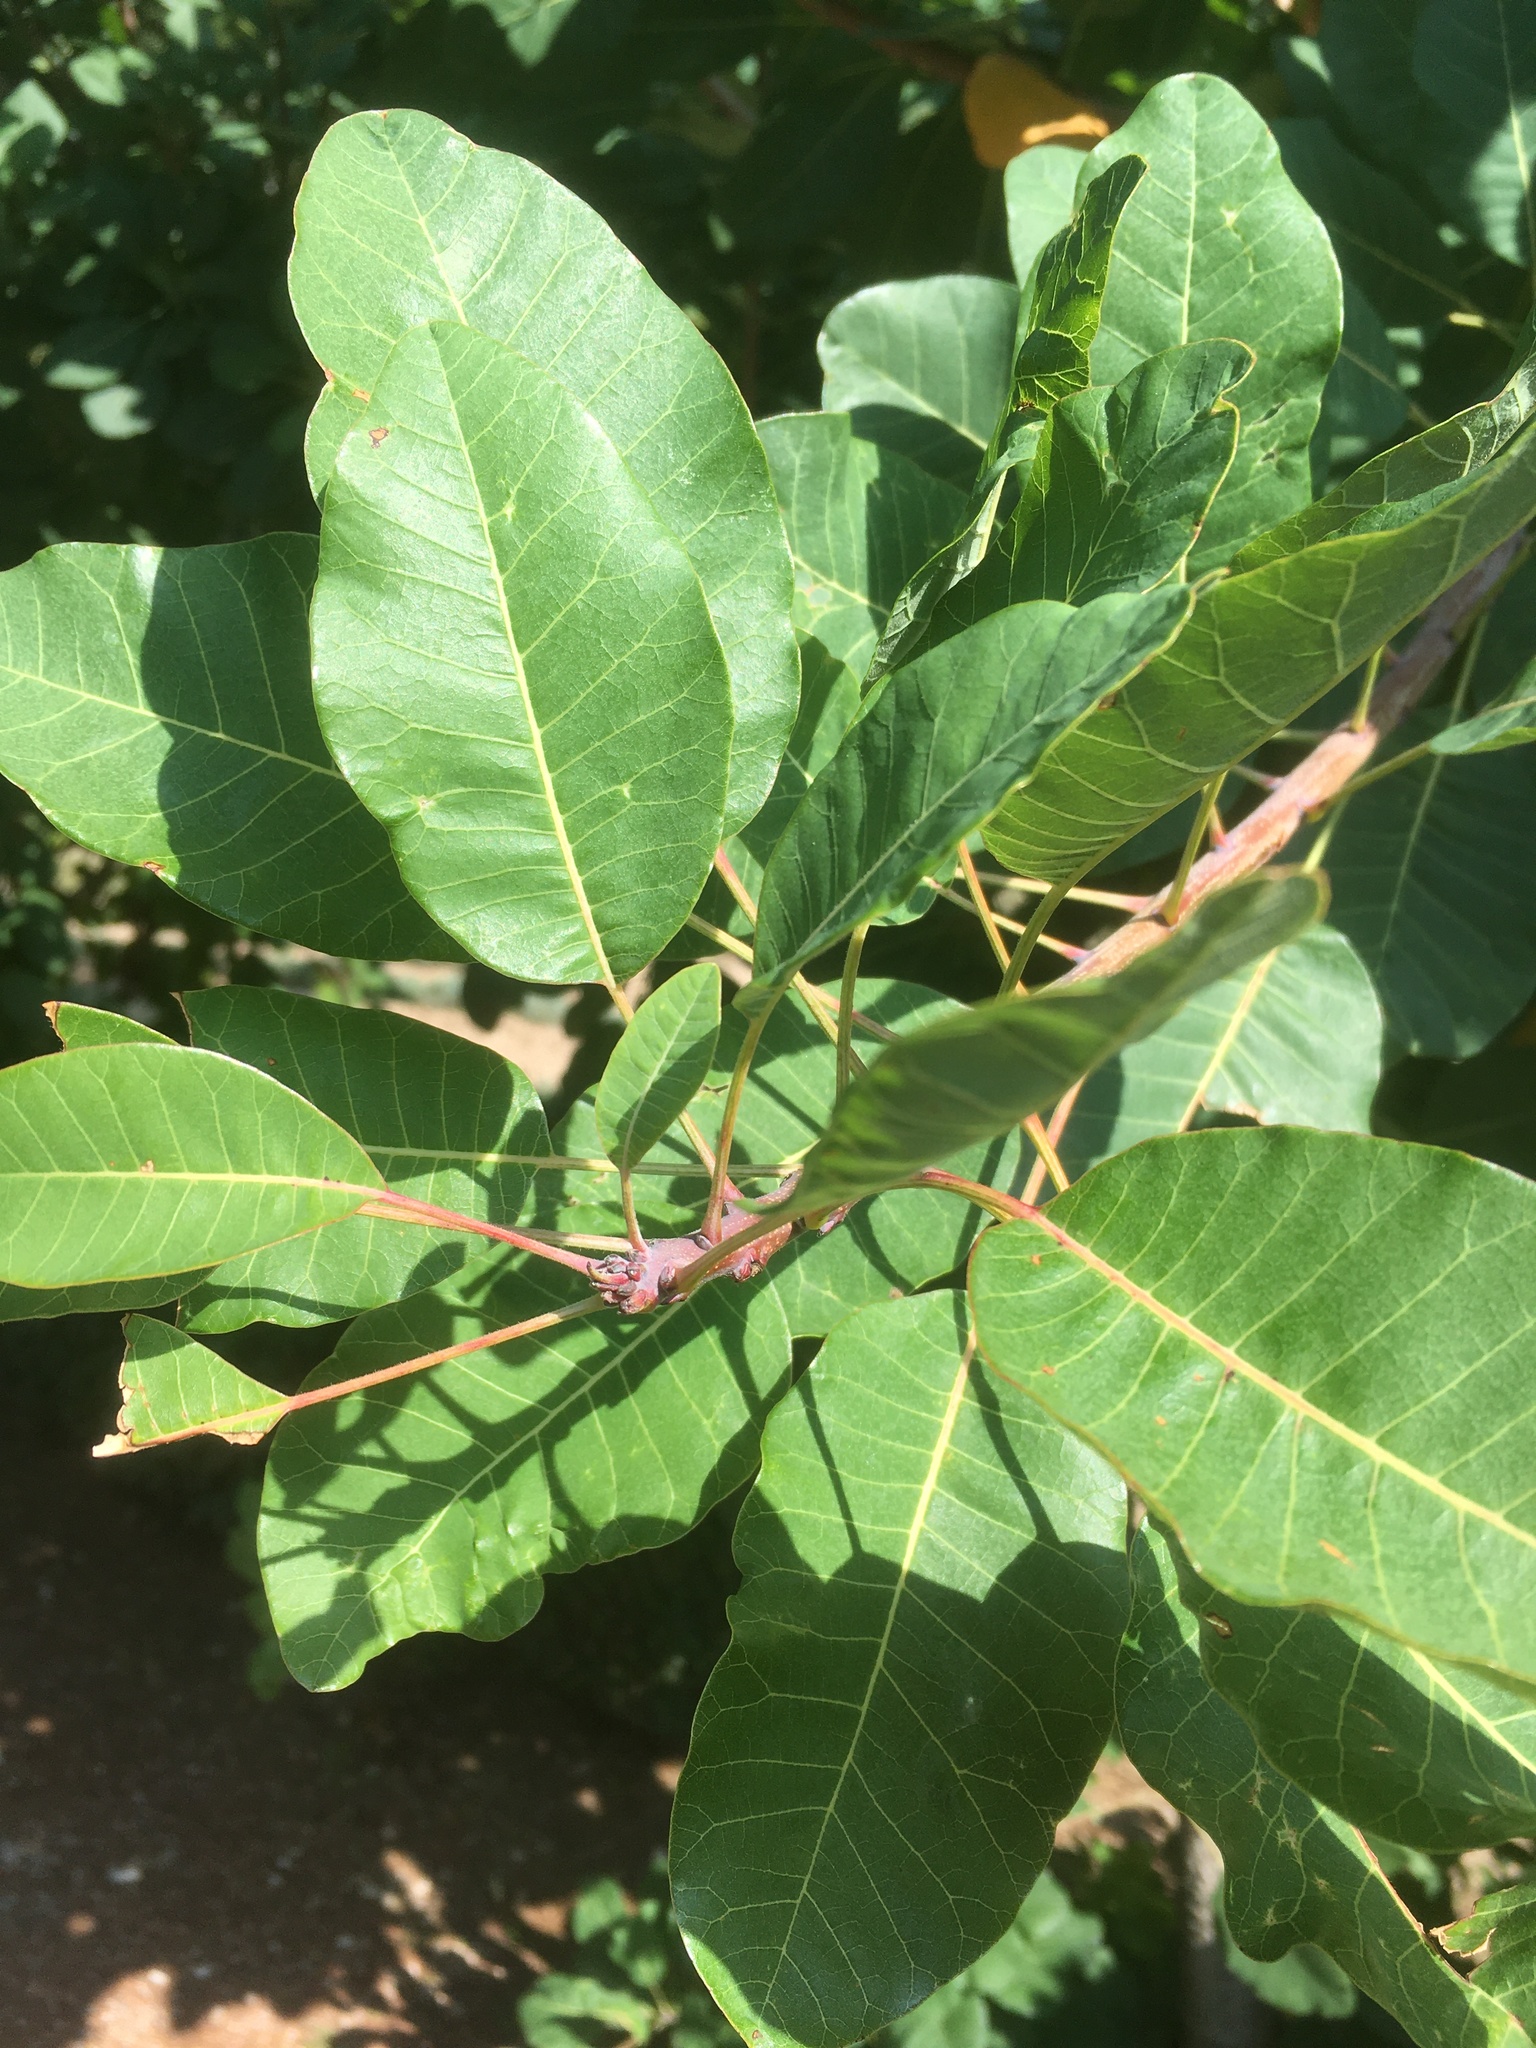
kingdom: Plantae
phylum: Tracheophyta
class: Magnoliopsida
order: Sapindales
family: Anacardiaceae
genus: Cotinus
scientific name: Cotinus coggygria
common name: Smoke-tree
